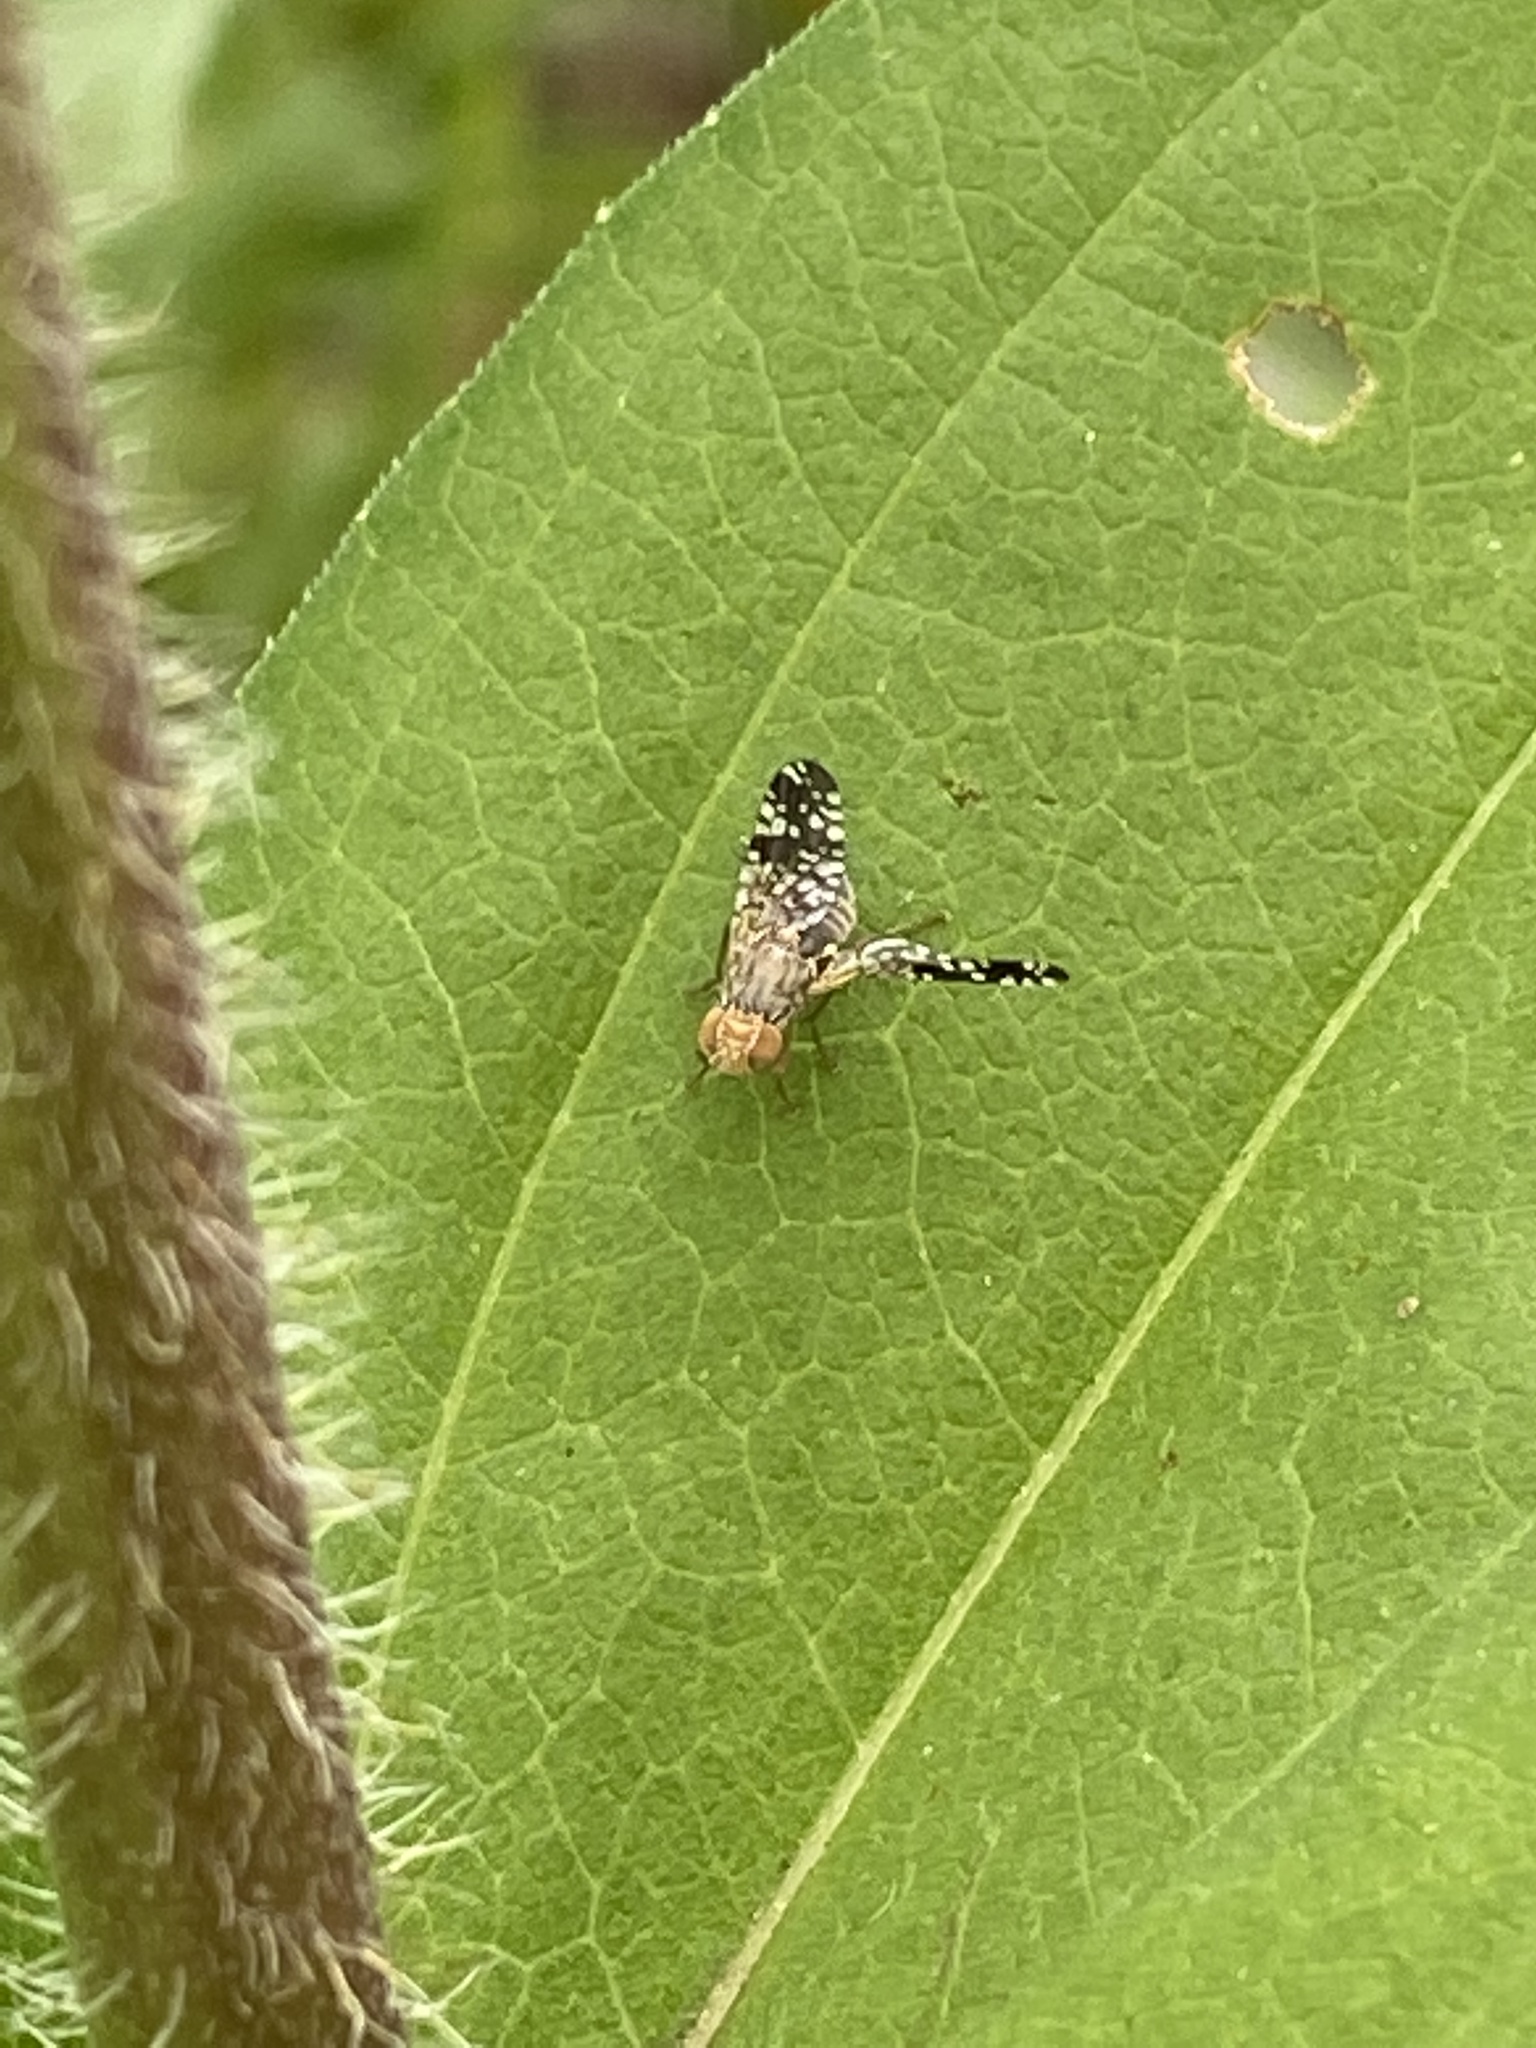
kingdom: Animalia
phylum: Arthropoda
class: Insecta
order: Diptera
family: Tephritidae
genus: Neotephritis
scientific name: Neotephritis finalis
